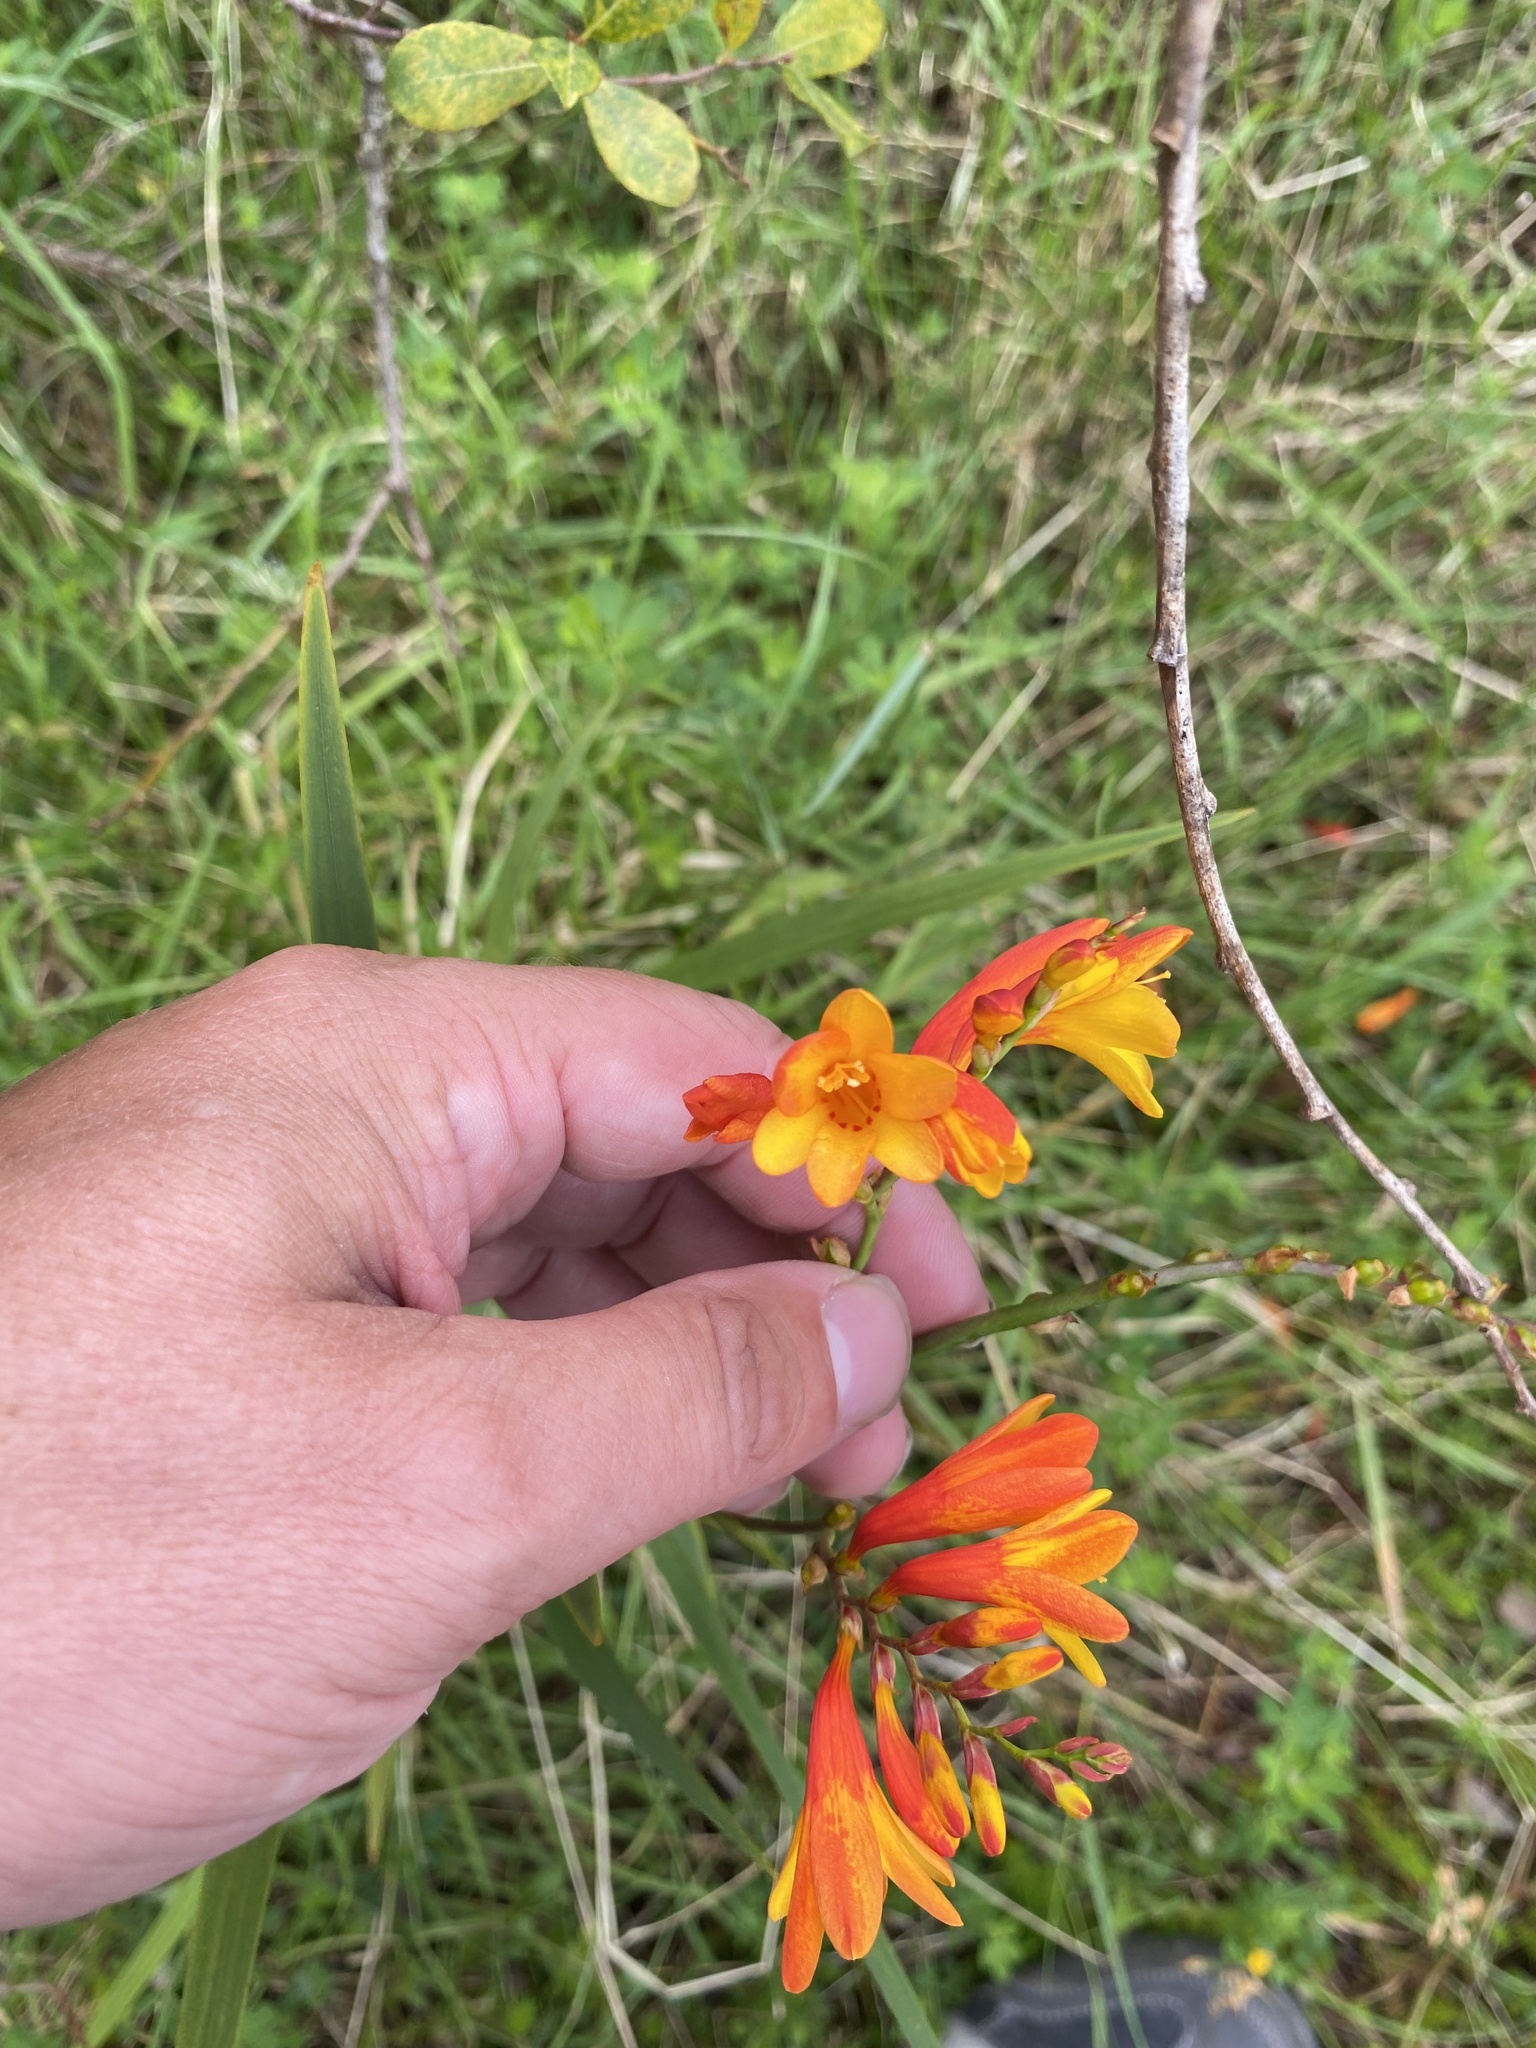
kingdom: Plantae
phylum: Tracheophyta
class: Liliopsida
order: Asparagales
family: Iridaceae
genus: Crocosmia
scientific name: Crocosmia crocosmiiflora
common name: Montbretia
